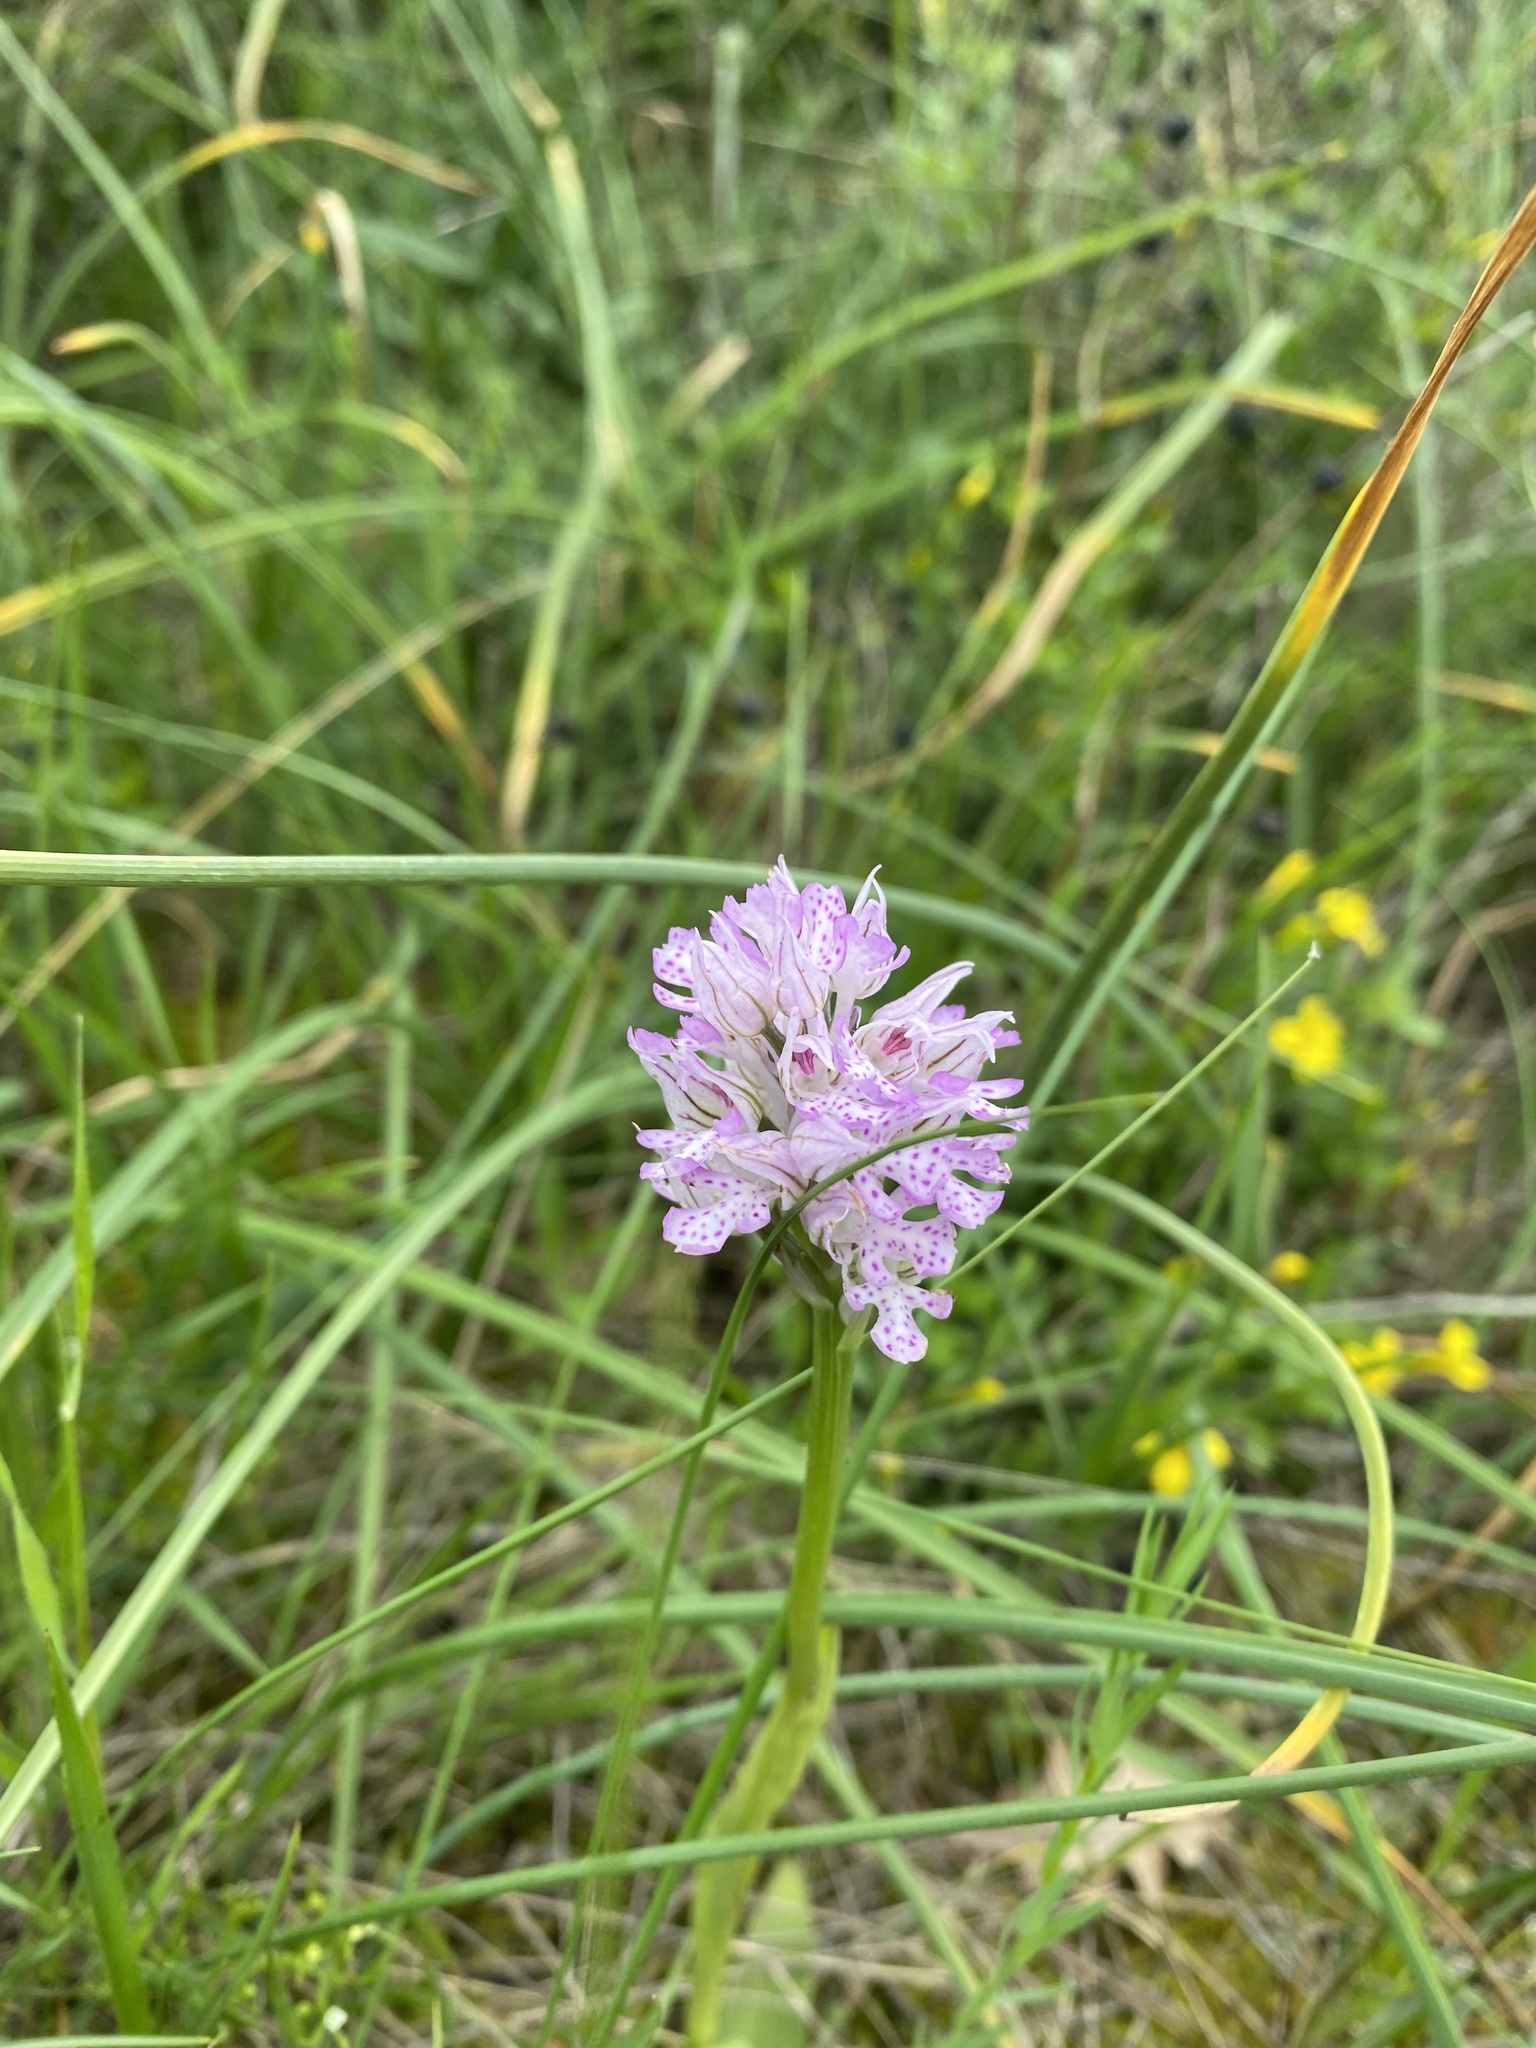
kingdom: Plantae
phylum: Tracheophyta
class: Liliopsida
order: Asparagales
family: Orchidaceae
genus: Neotinea
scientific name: Neotinea tridentata
